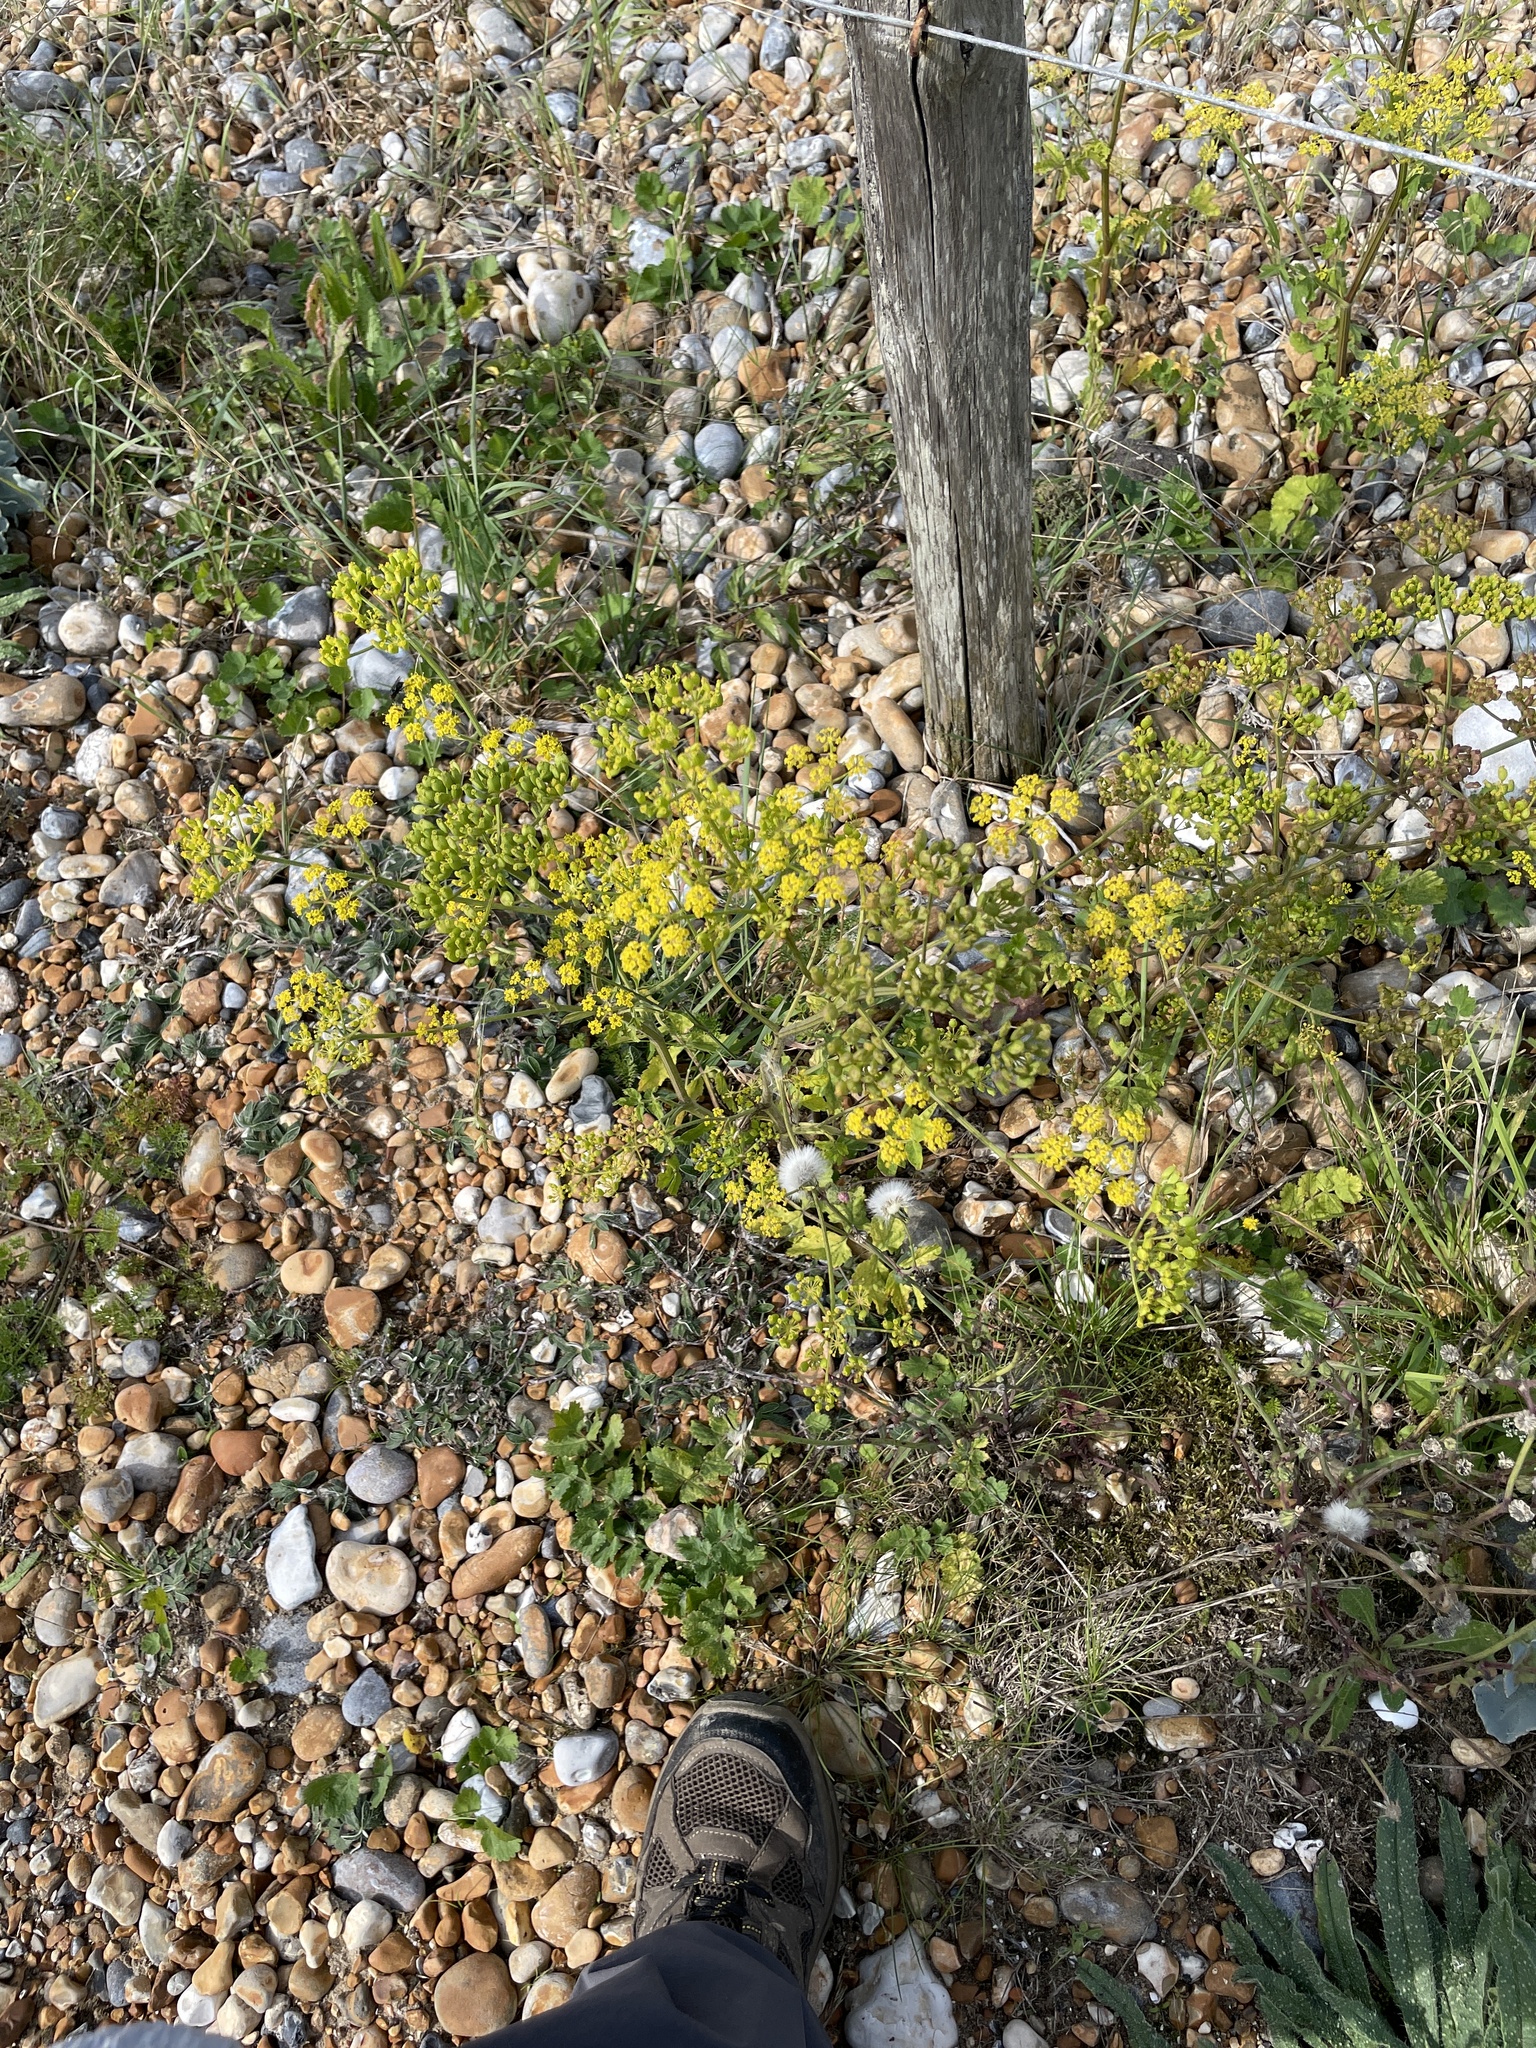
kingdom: Plantae
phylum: Tracheophyta
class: Magnoliopsida
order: Apiales
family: Apiaceae
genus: Pastinaca
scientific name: Pastinaca sativa
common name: Wild parsnip
